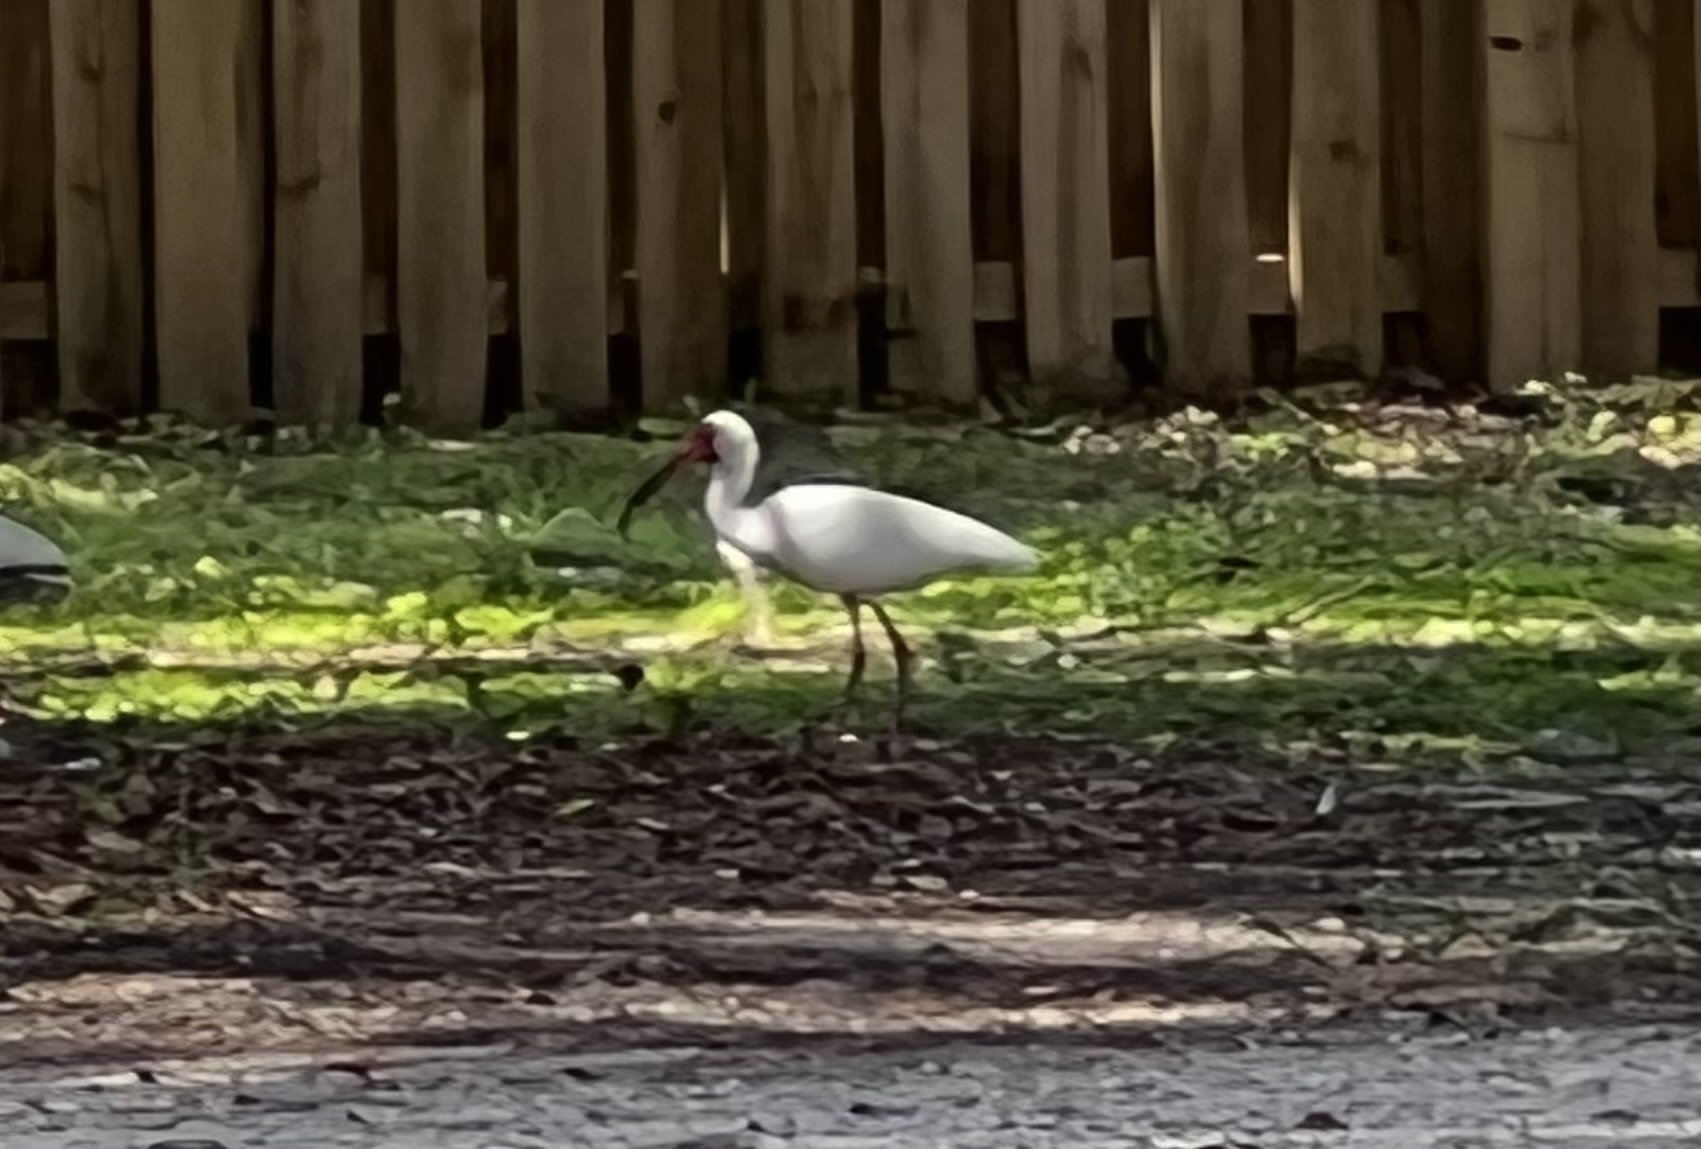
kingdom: Animalia
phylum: Chordata
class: Aves
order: Pelecaniformes
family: Threskiornithidae
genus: Eudocimus
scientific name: Eudocimus albus
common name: White ibis
